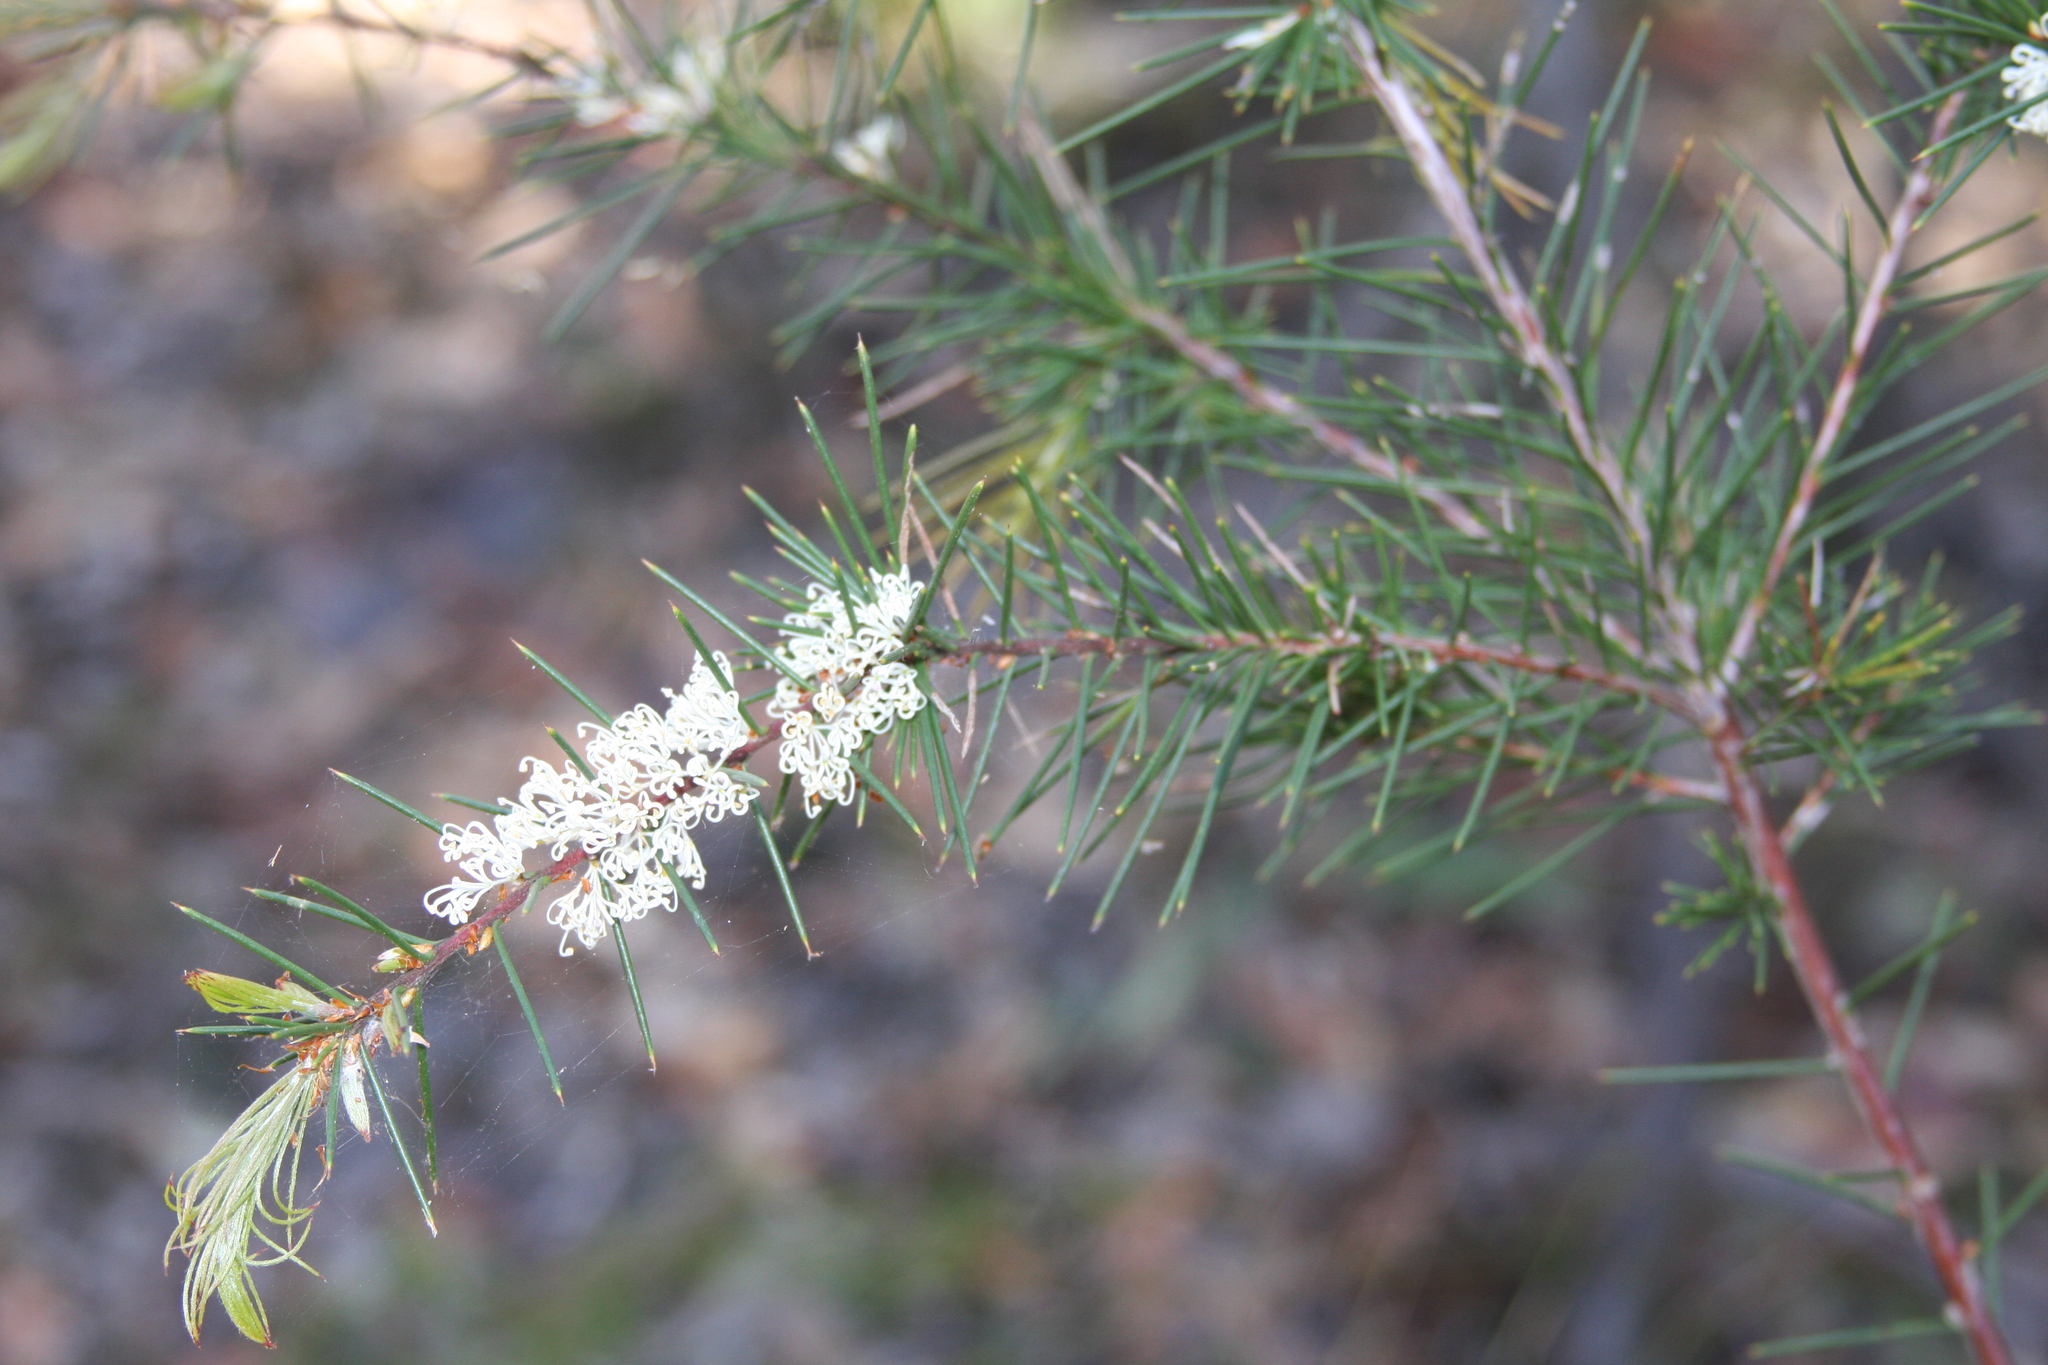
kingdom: Plantae
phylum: Tracheophyta
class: Magnoliopsida
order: Proteales
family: Proteaceae
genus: Hakea
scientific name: Hakea sericea
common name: Needle bush
